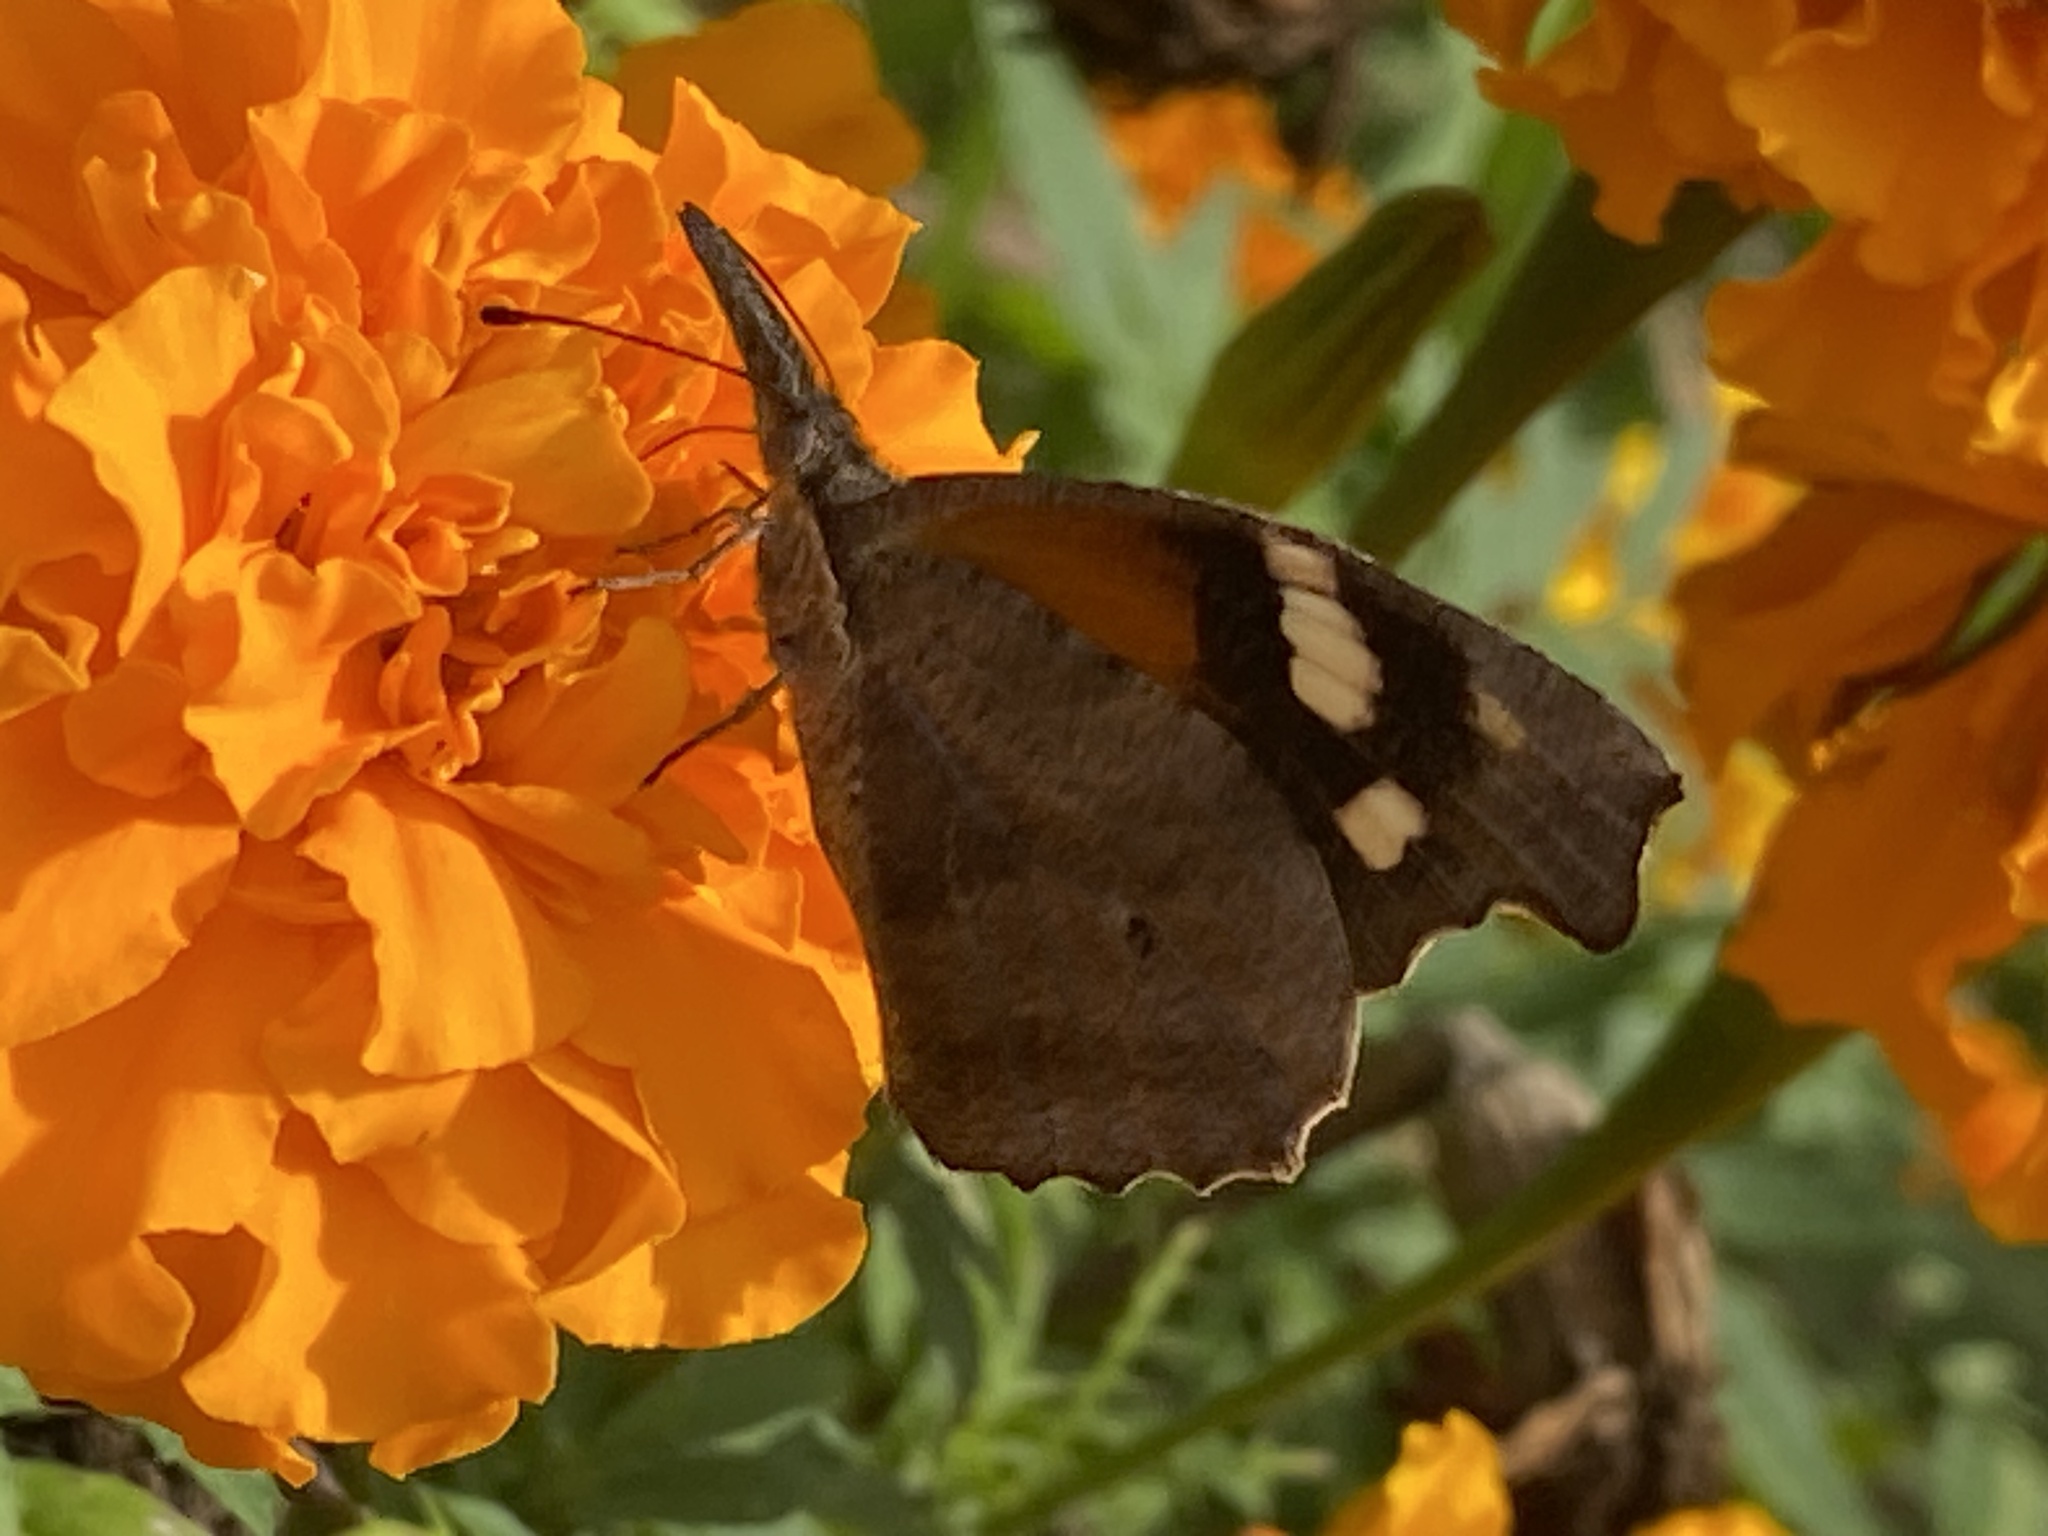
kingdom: Animalia
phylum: Arthropoda
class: Insecta
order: Lepidoptera
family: Nymphalidae
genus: Libytheana
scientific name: Libytheana carinenta
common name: American snout
